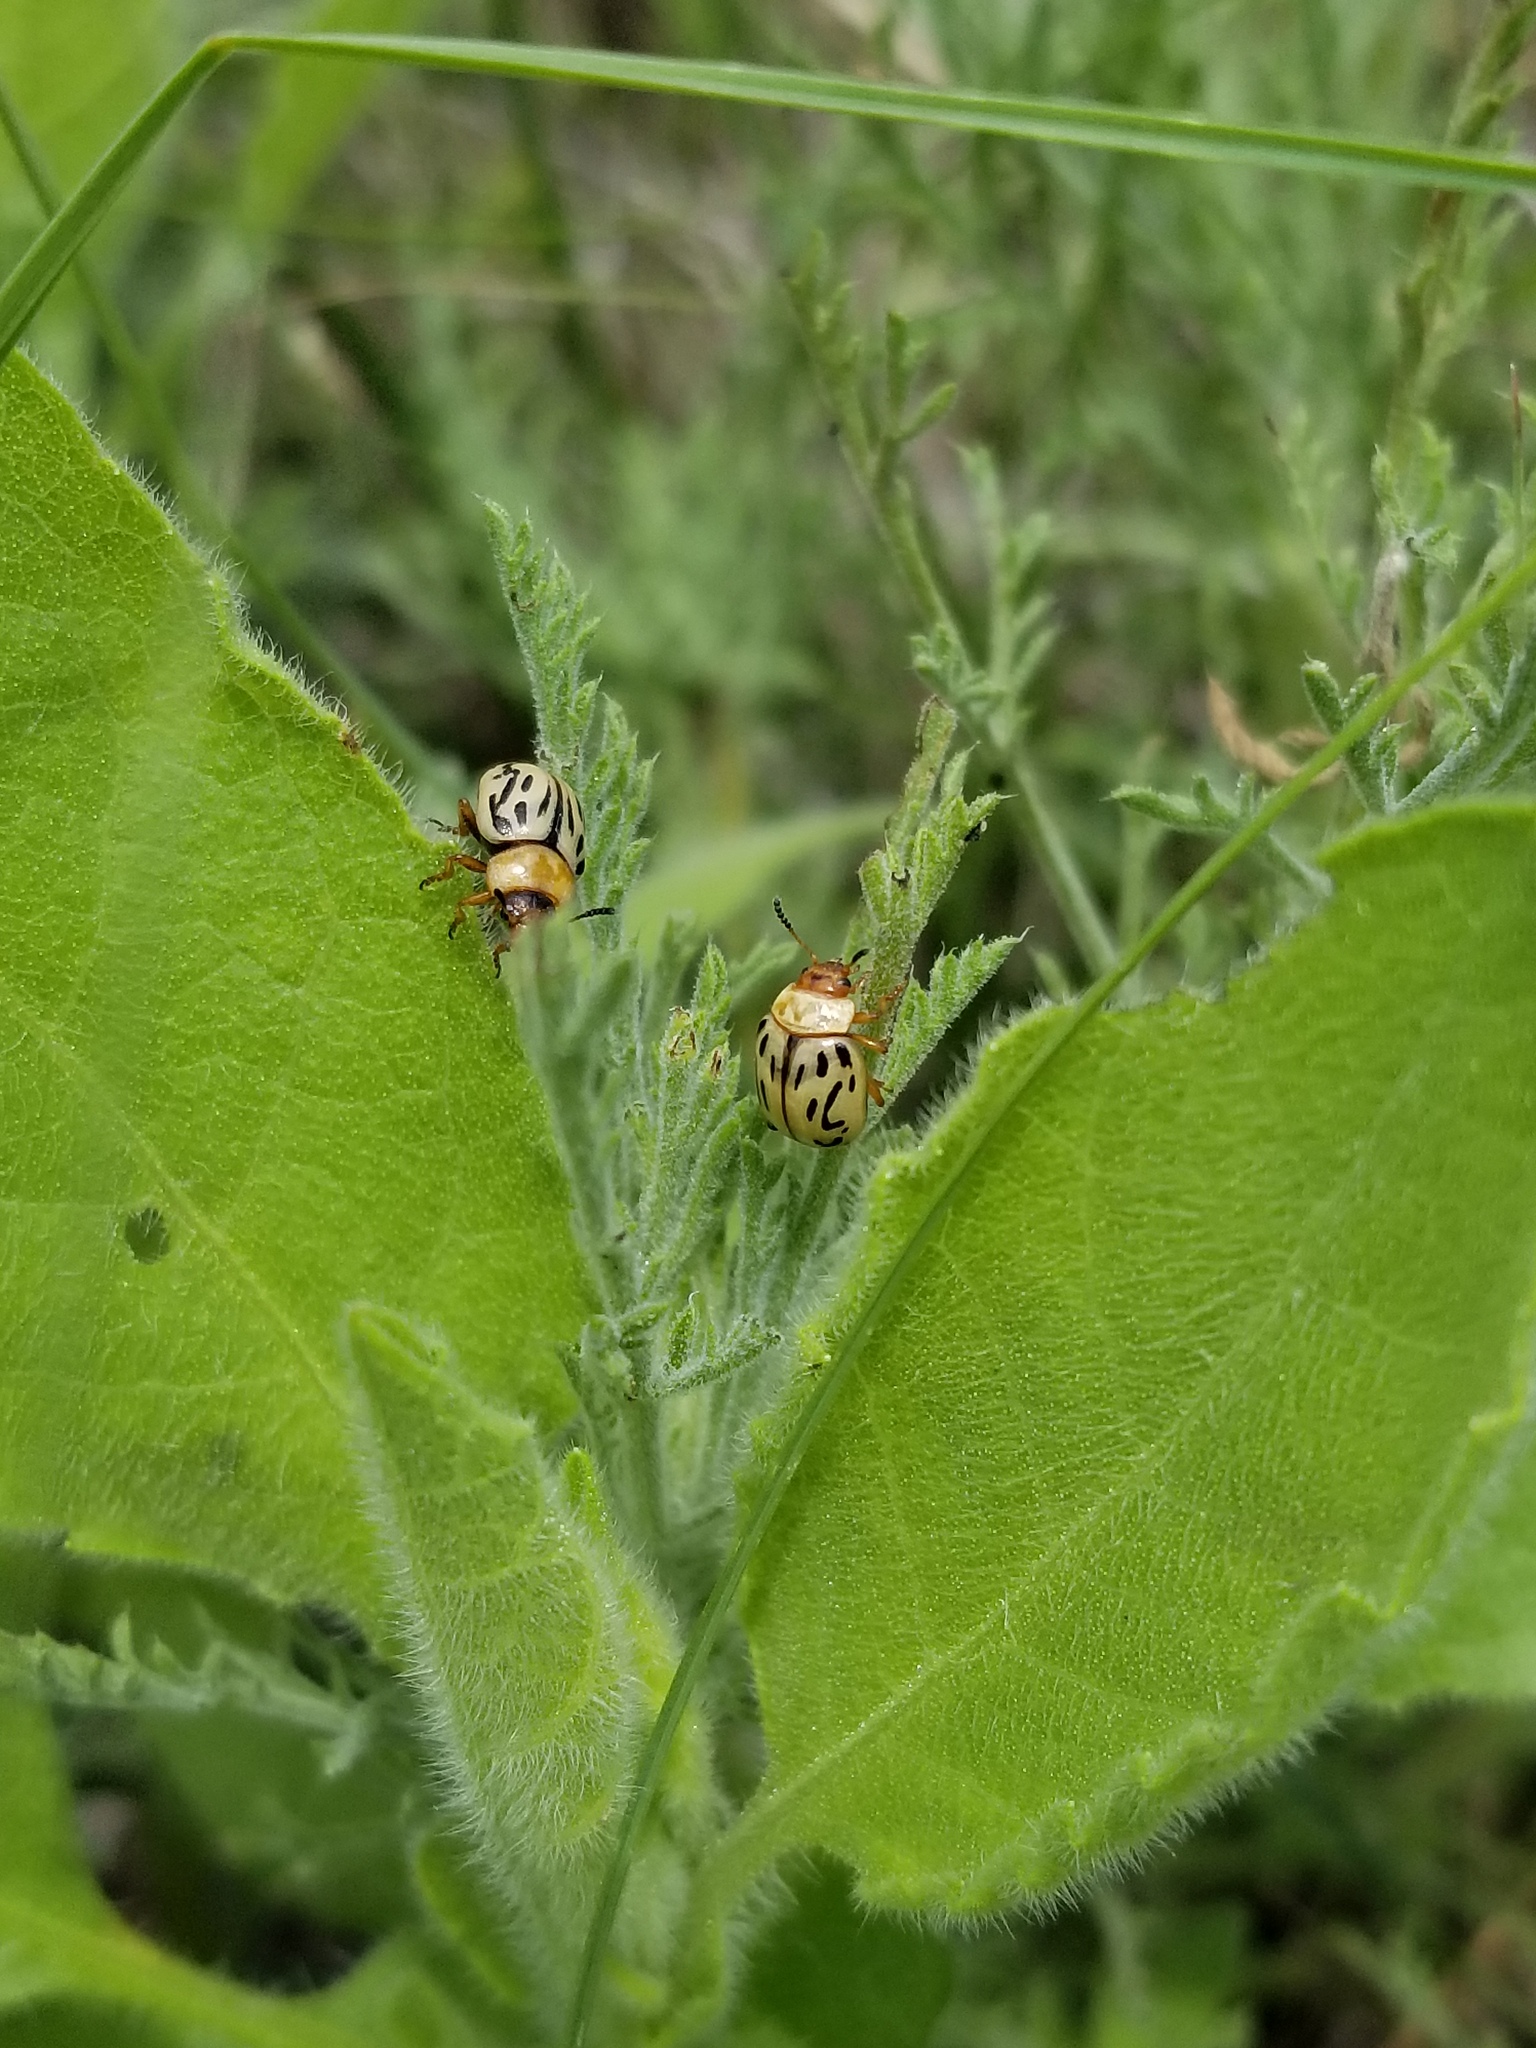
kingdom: Animalia
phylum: Arthropoda
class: Insecta
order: Coleoptera
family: Chrysomelidae
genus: Calligrapha
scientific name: Calligrapha
